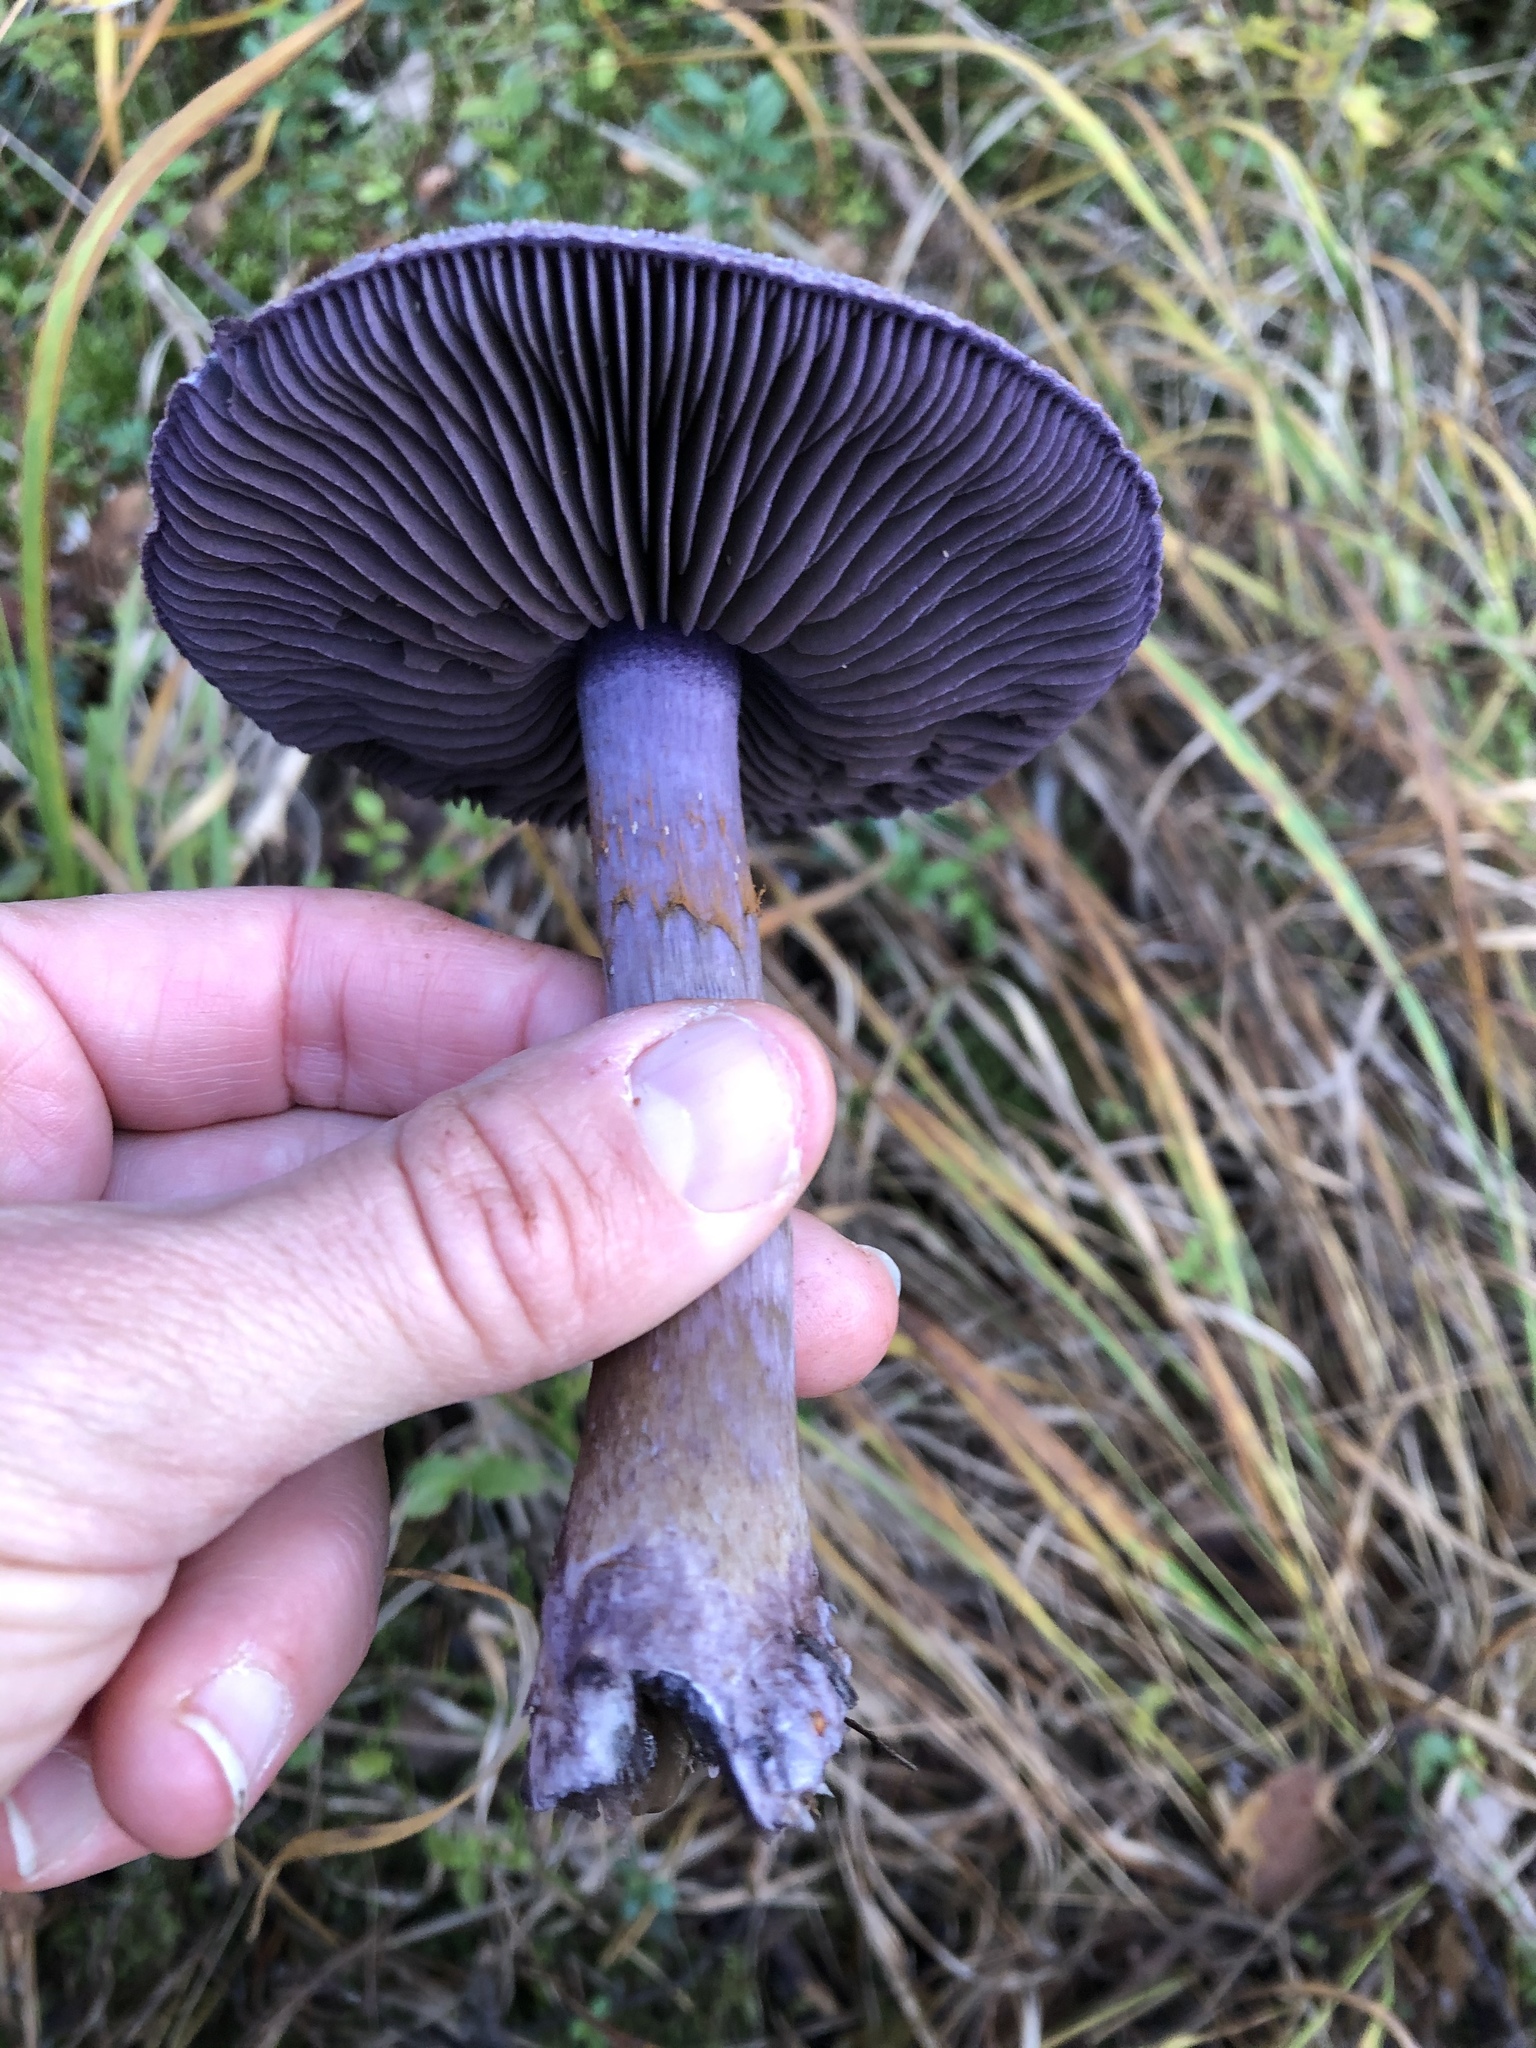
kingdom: Fungi
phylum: Basidiomycota
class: Agaricomycetes
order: Agaricales
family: Cortinariaceae
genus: Cortinarius
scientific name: Cortinarius violaceus
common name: Violet webcap
